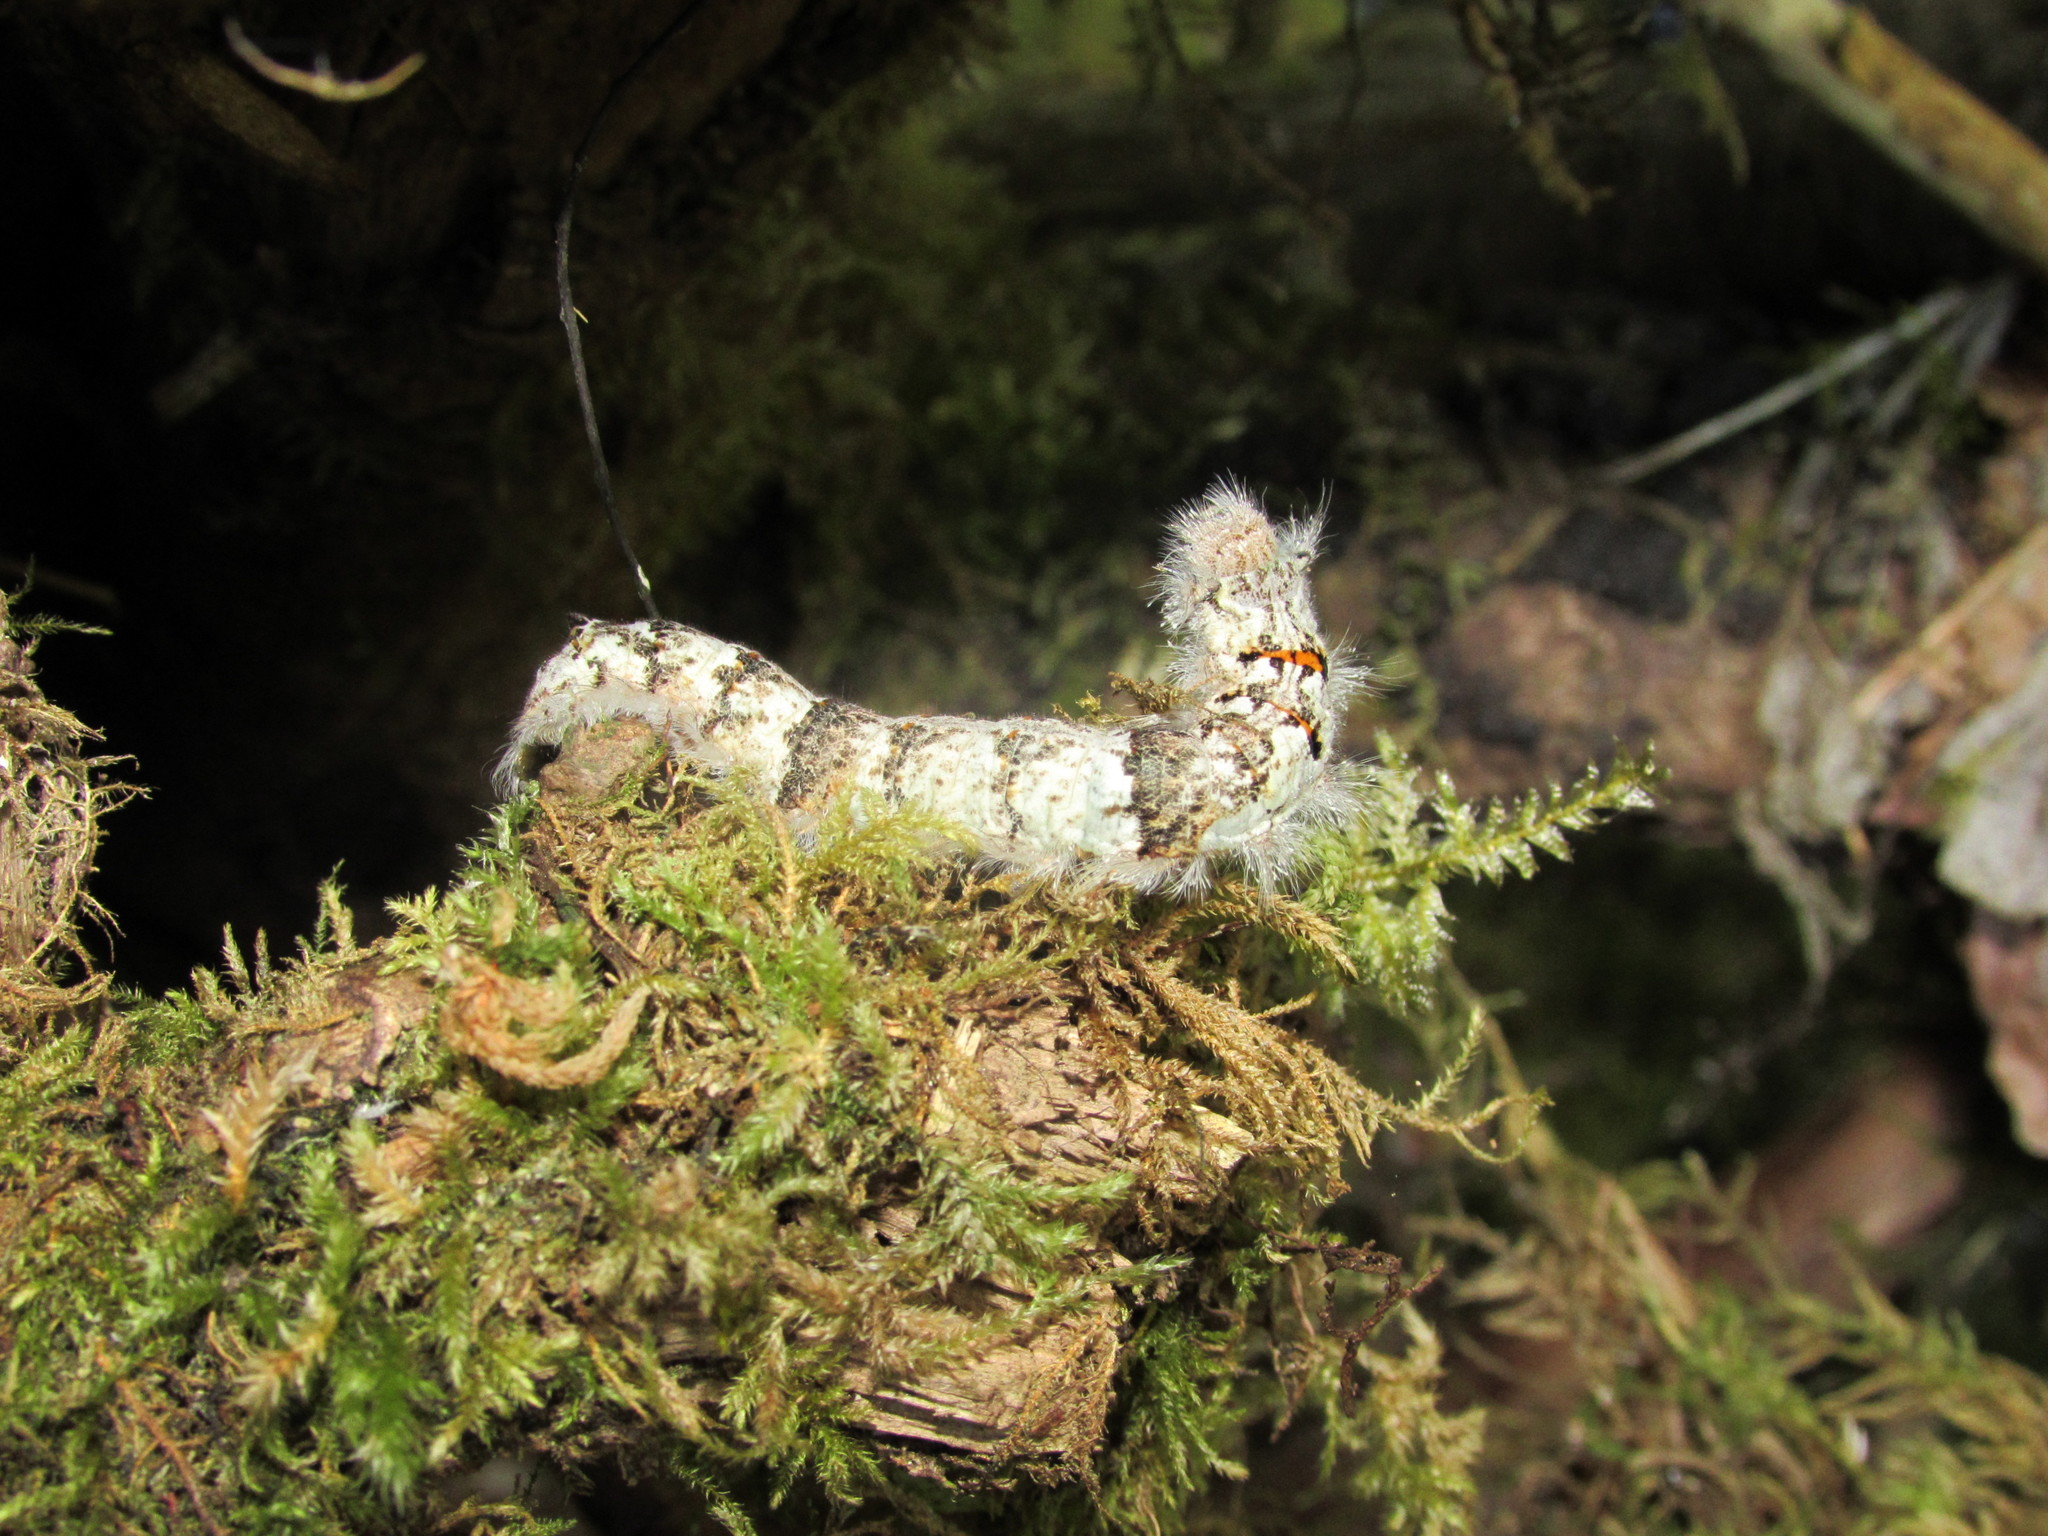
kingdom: Animalia
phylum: Arthropoda
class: Insecta
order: Lepidoptera
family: Lasiocampidae
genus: Phyllodesma
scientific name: Phyllodesma americana
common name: American lappet moth
